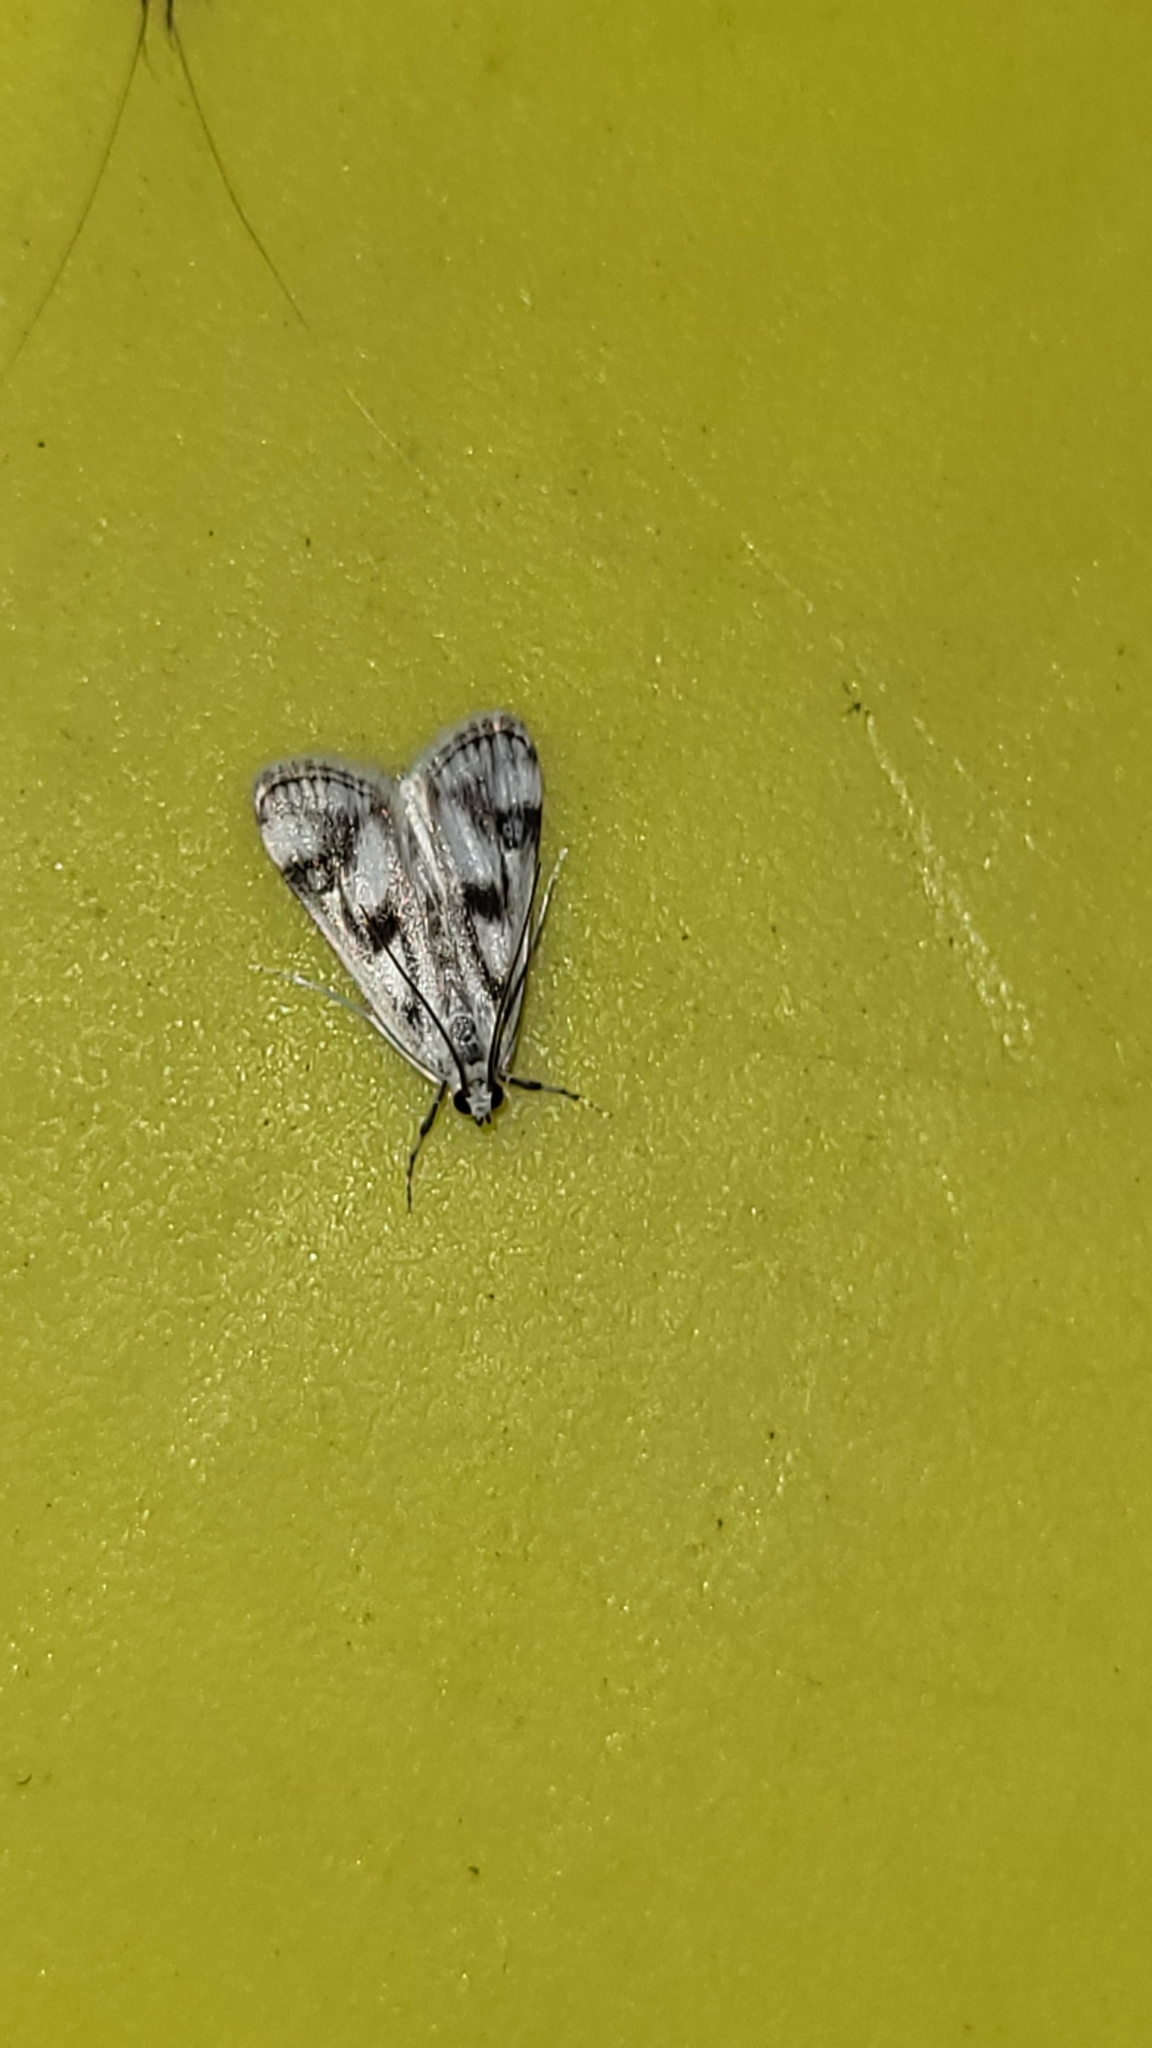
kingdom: Animalia
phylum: Arthropoda
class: Insecta
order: Lepidoptera
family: Crambidae
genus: Parapoynx
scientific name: Parapoynx maculalis
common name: Polymorphic pondweed moth
